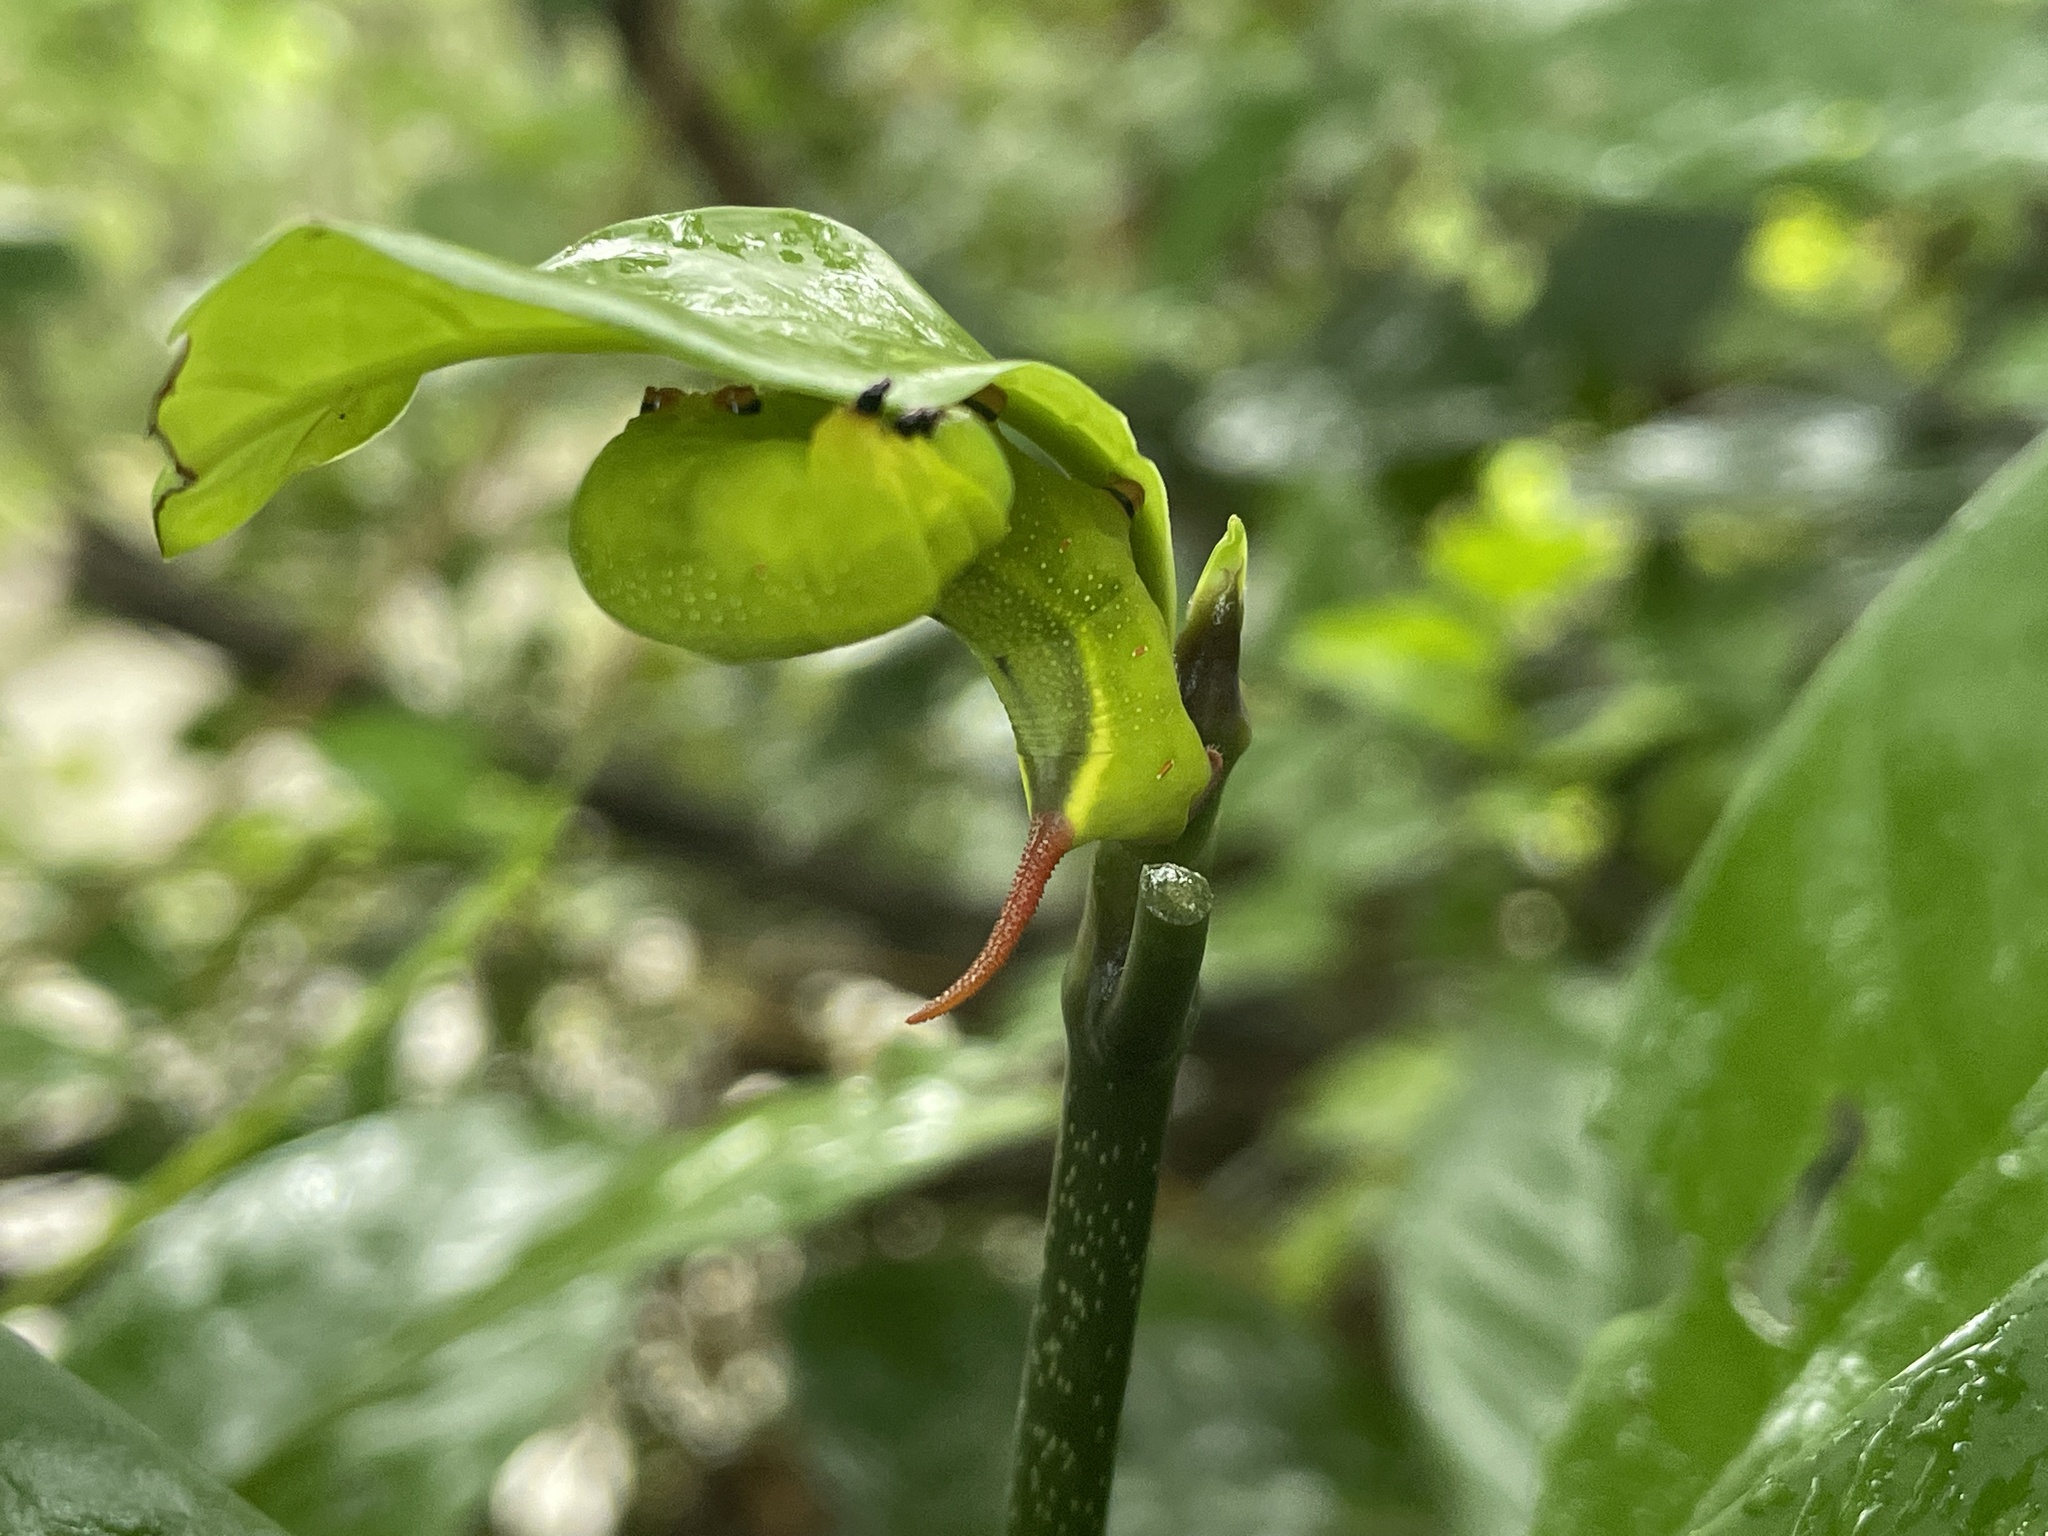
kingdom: Animalia
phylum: Arthropoda
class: Insecta
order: Lepidoptera
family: Sphingidae
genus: Macroglossum
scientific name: Macroglossum divergens
